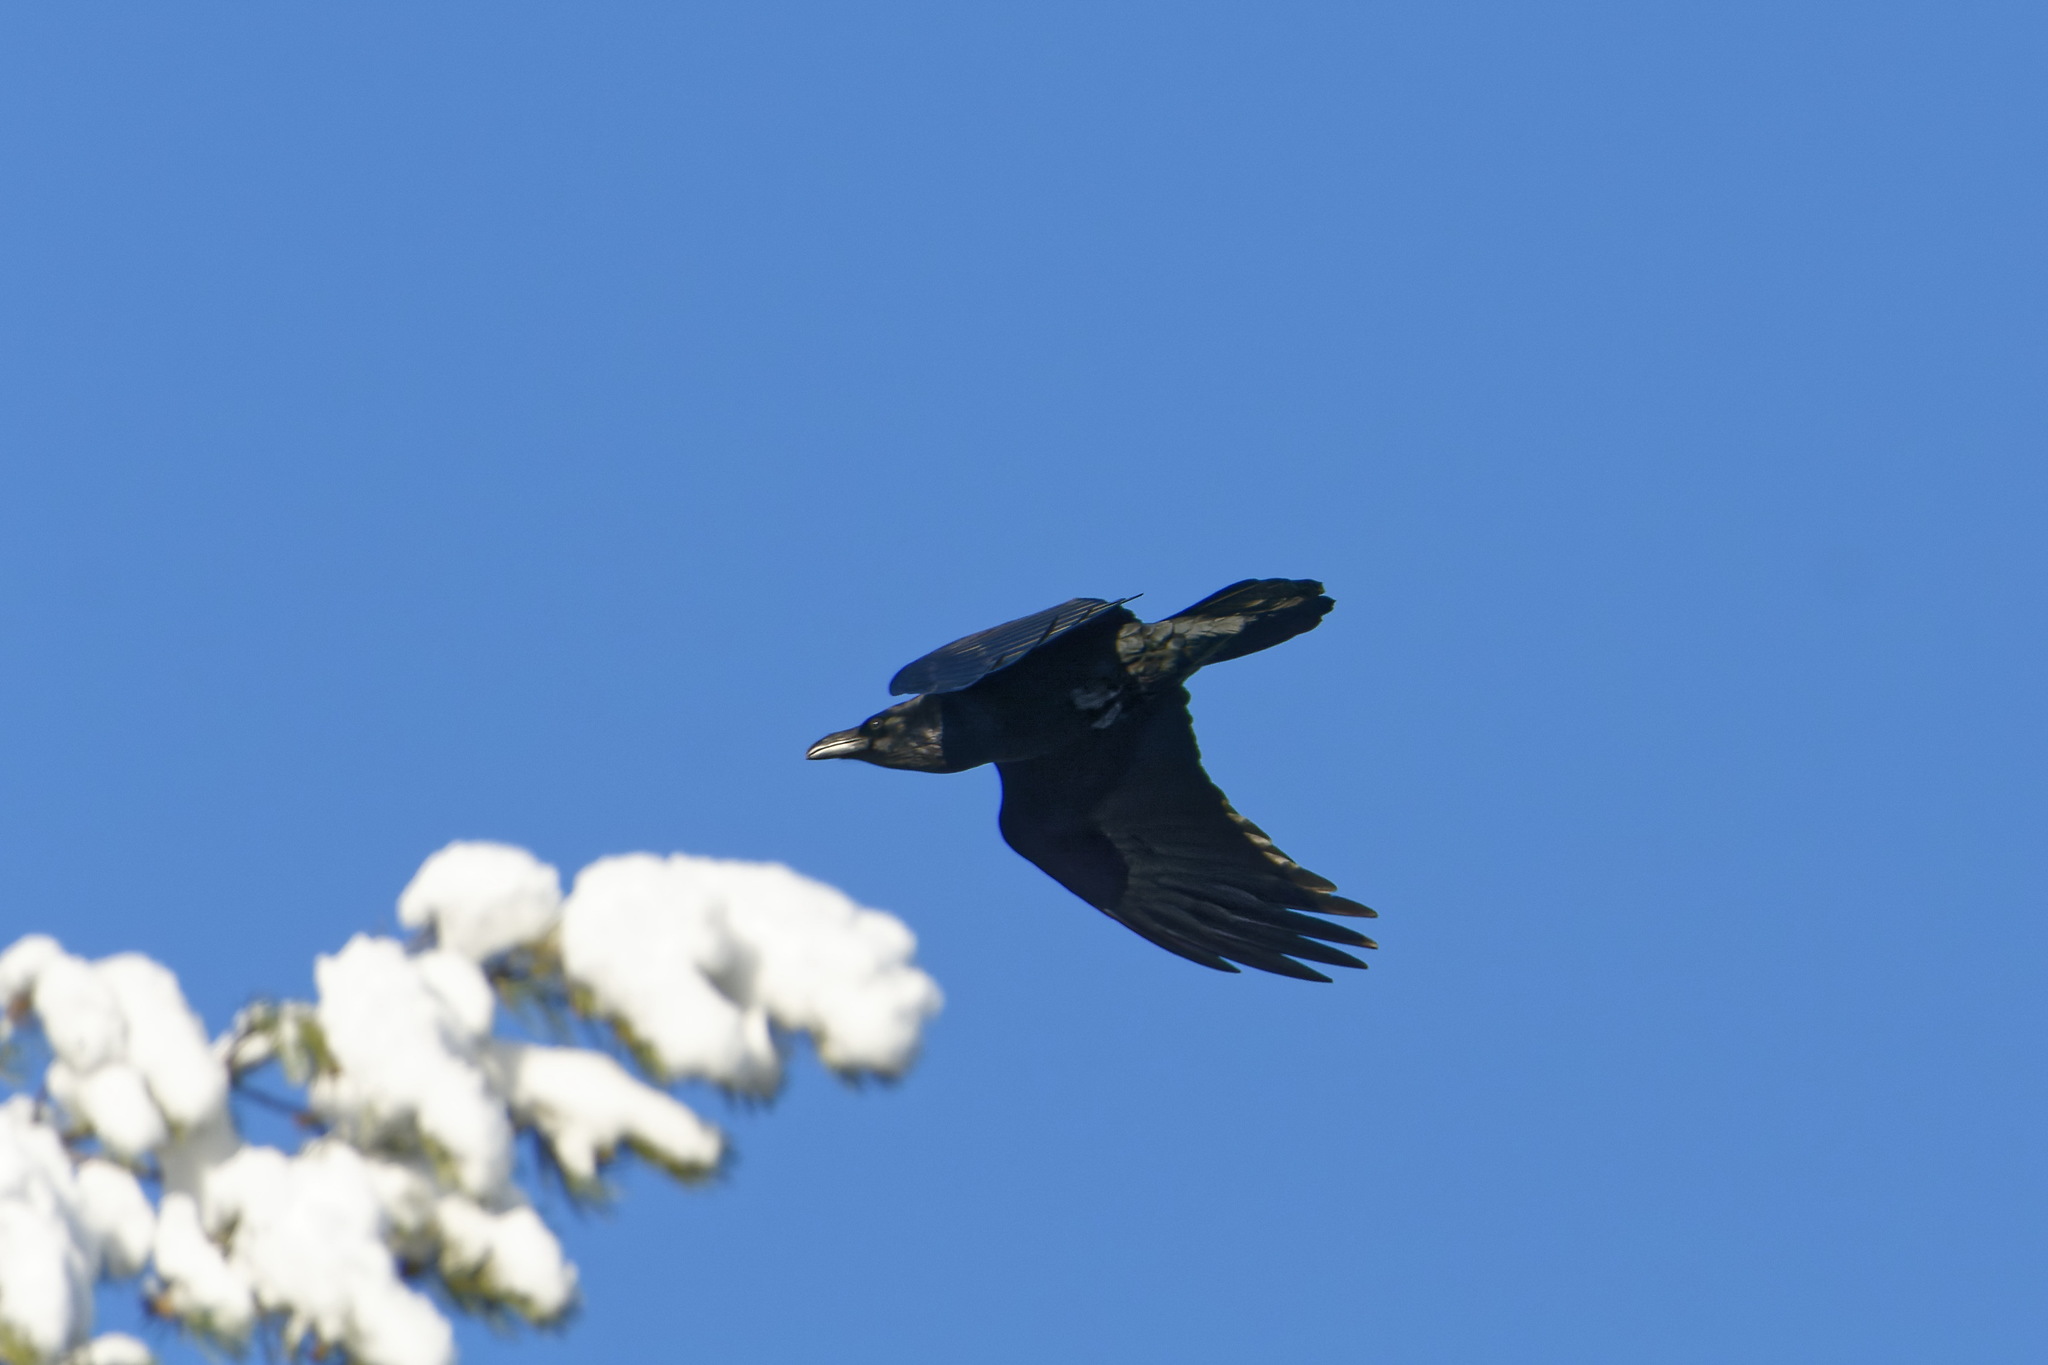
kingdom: Animalia
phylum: Chordata
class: Aves
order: Passeriformes
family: Corvidae
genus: Corvus
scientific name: Corvus corax
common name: Common raven
